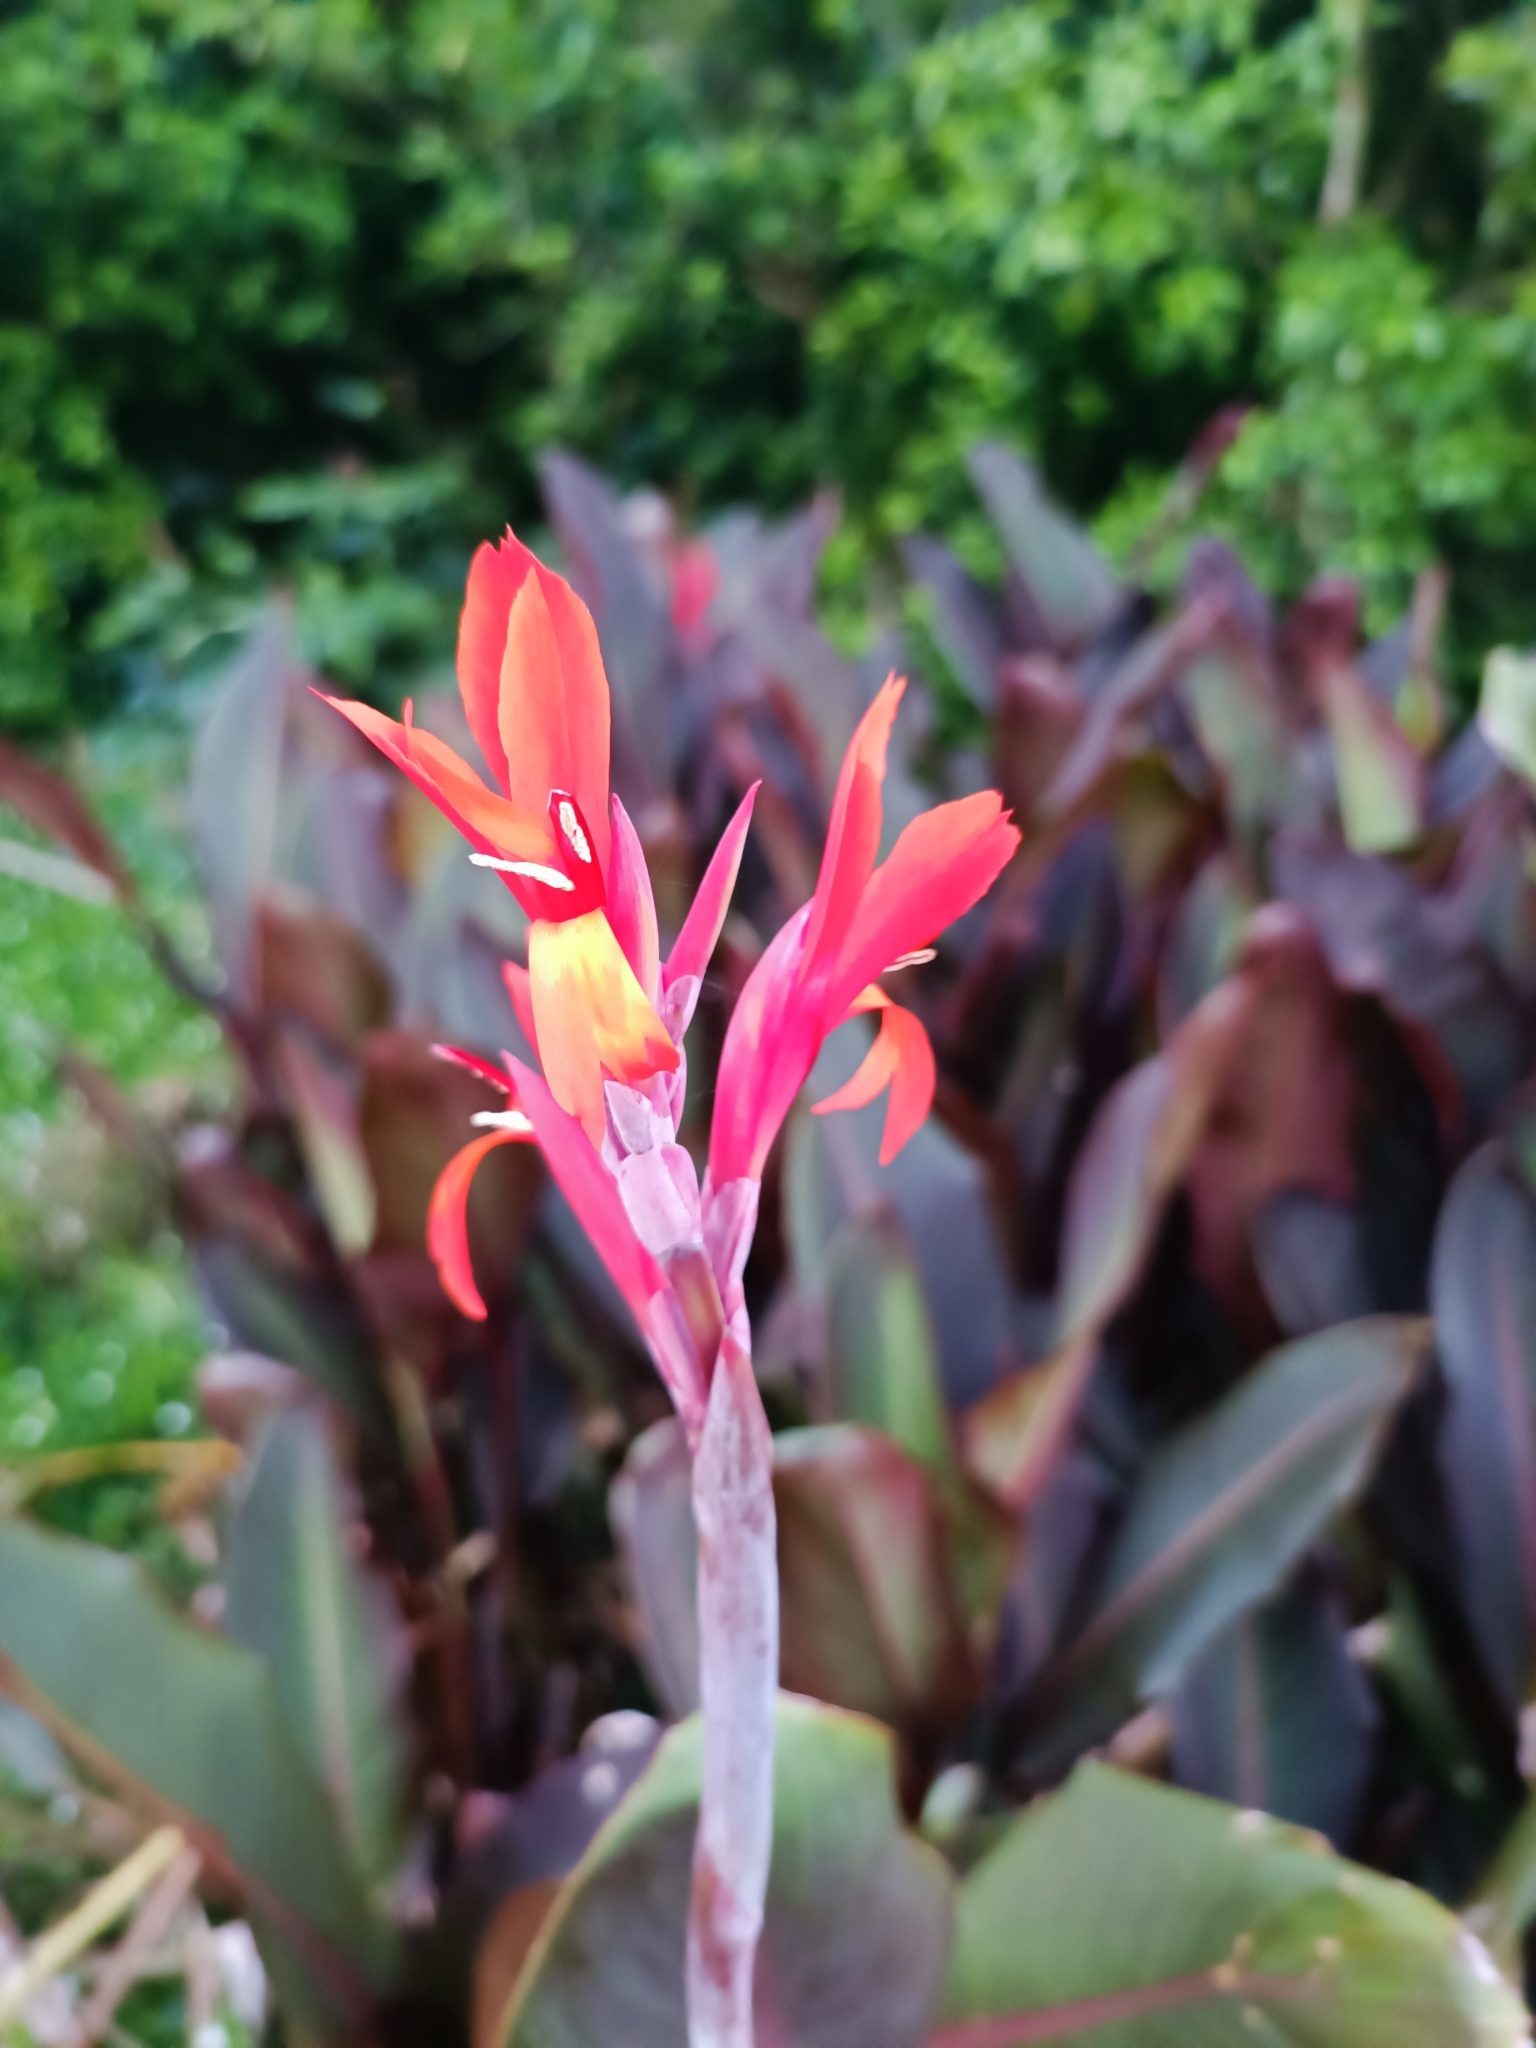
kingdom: Plantae
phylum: Tracheophyta
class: Liliopsida
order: Zingiberales
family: Cannaceae
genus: Canna
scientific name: Canna indica
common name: Indian shot
